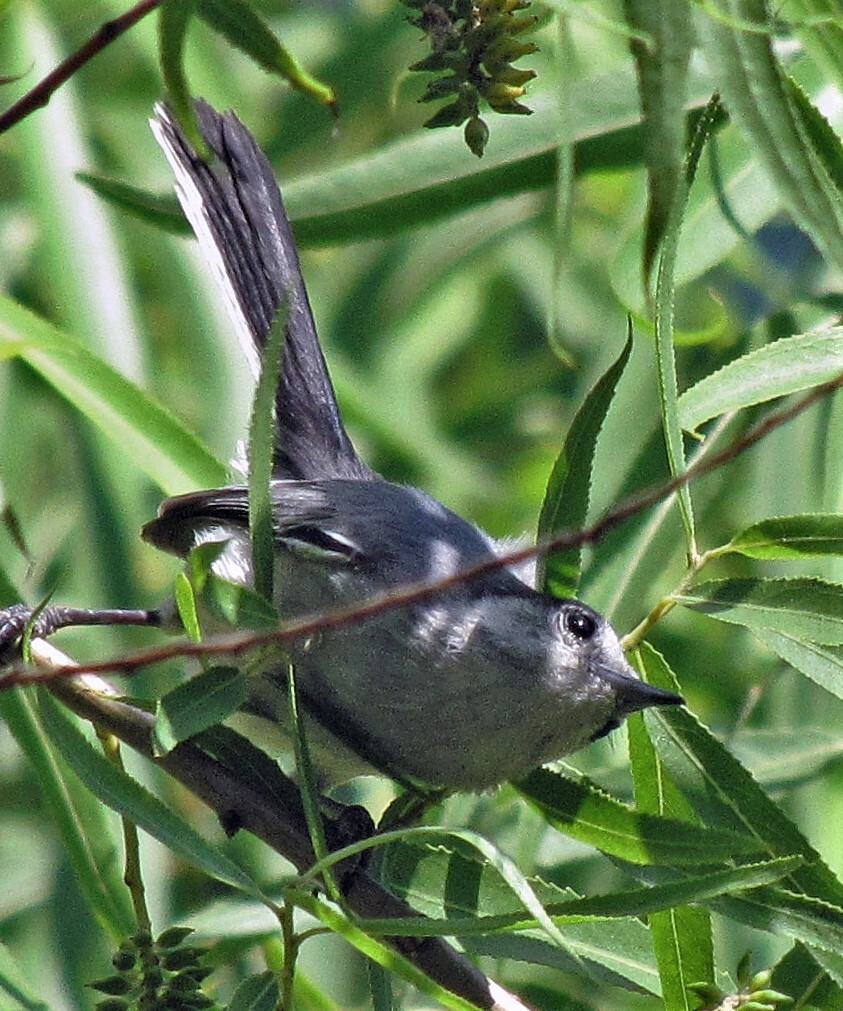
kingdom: Animalia
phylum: Chordata
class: Aves
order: Passeriformes
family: Polioptilidae
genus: Polioptila
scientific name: Polioptila dumicola
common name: Masked gnatcatcher
